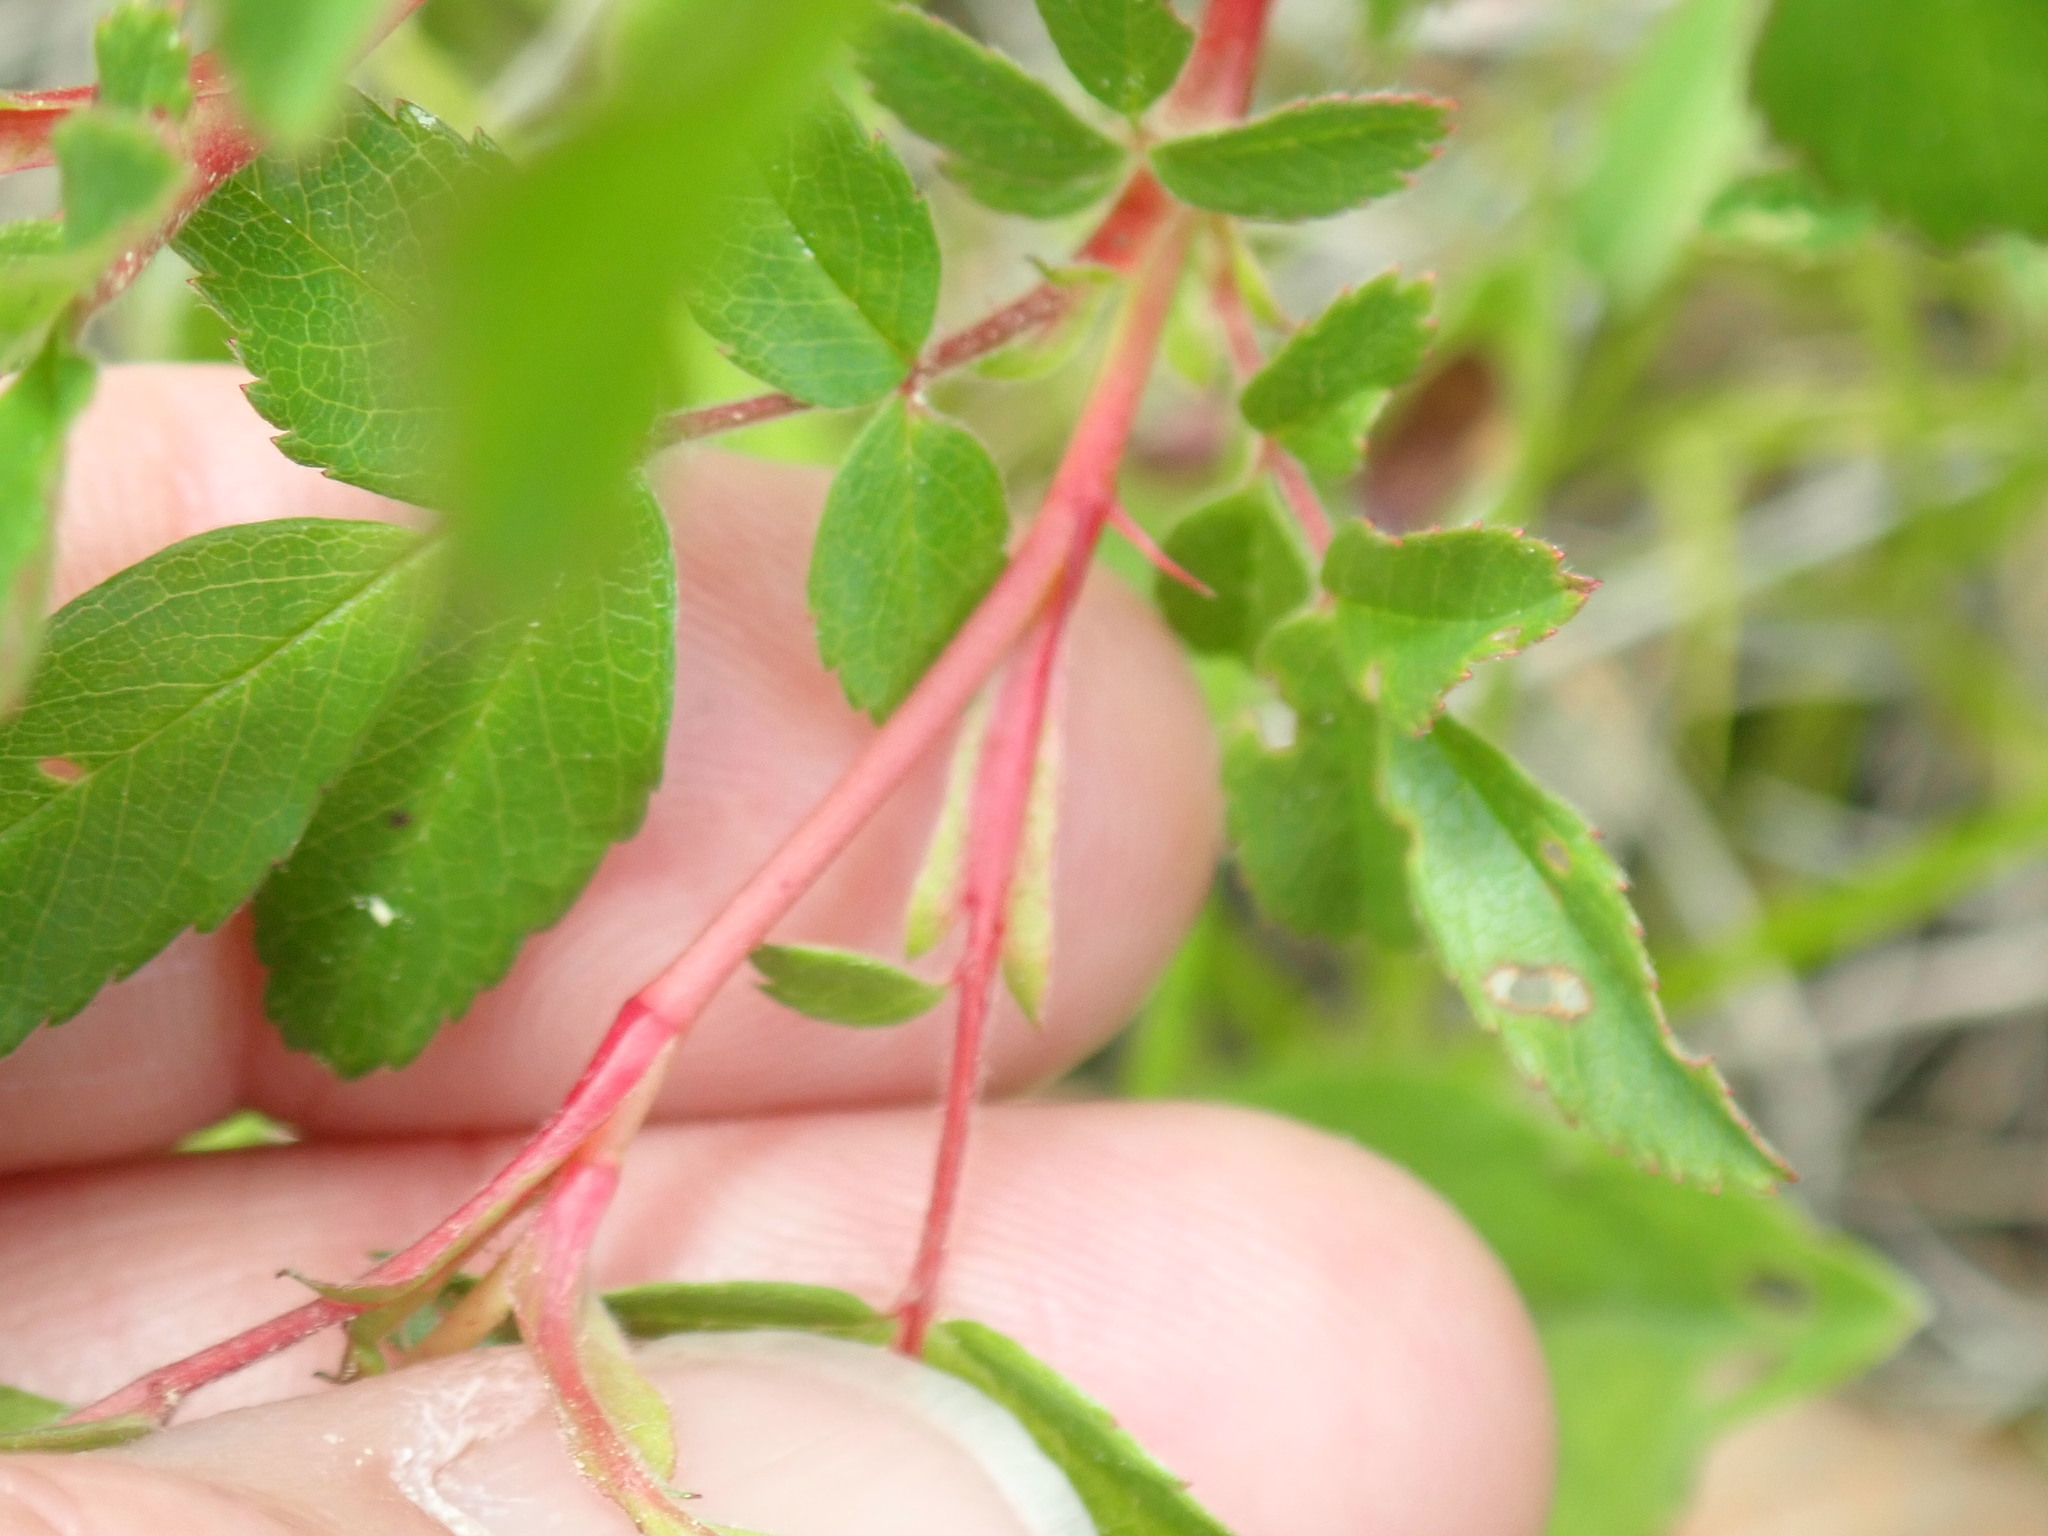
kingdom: Plantae
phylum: Tracheophyta
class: Magnoliopsida
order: Rosales
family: Rosaceae
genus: Rosa
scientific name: Rosa carolina
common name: Pasture rose
